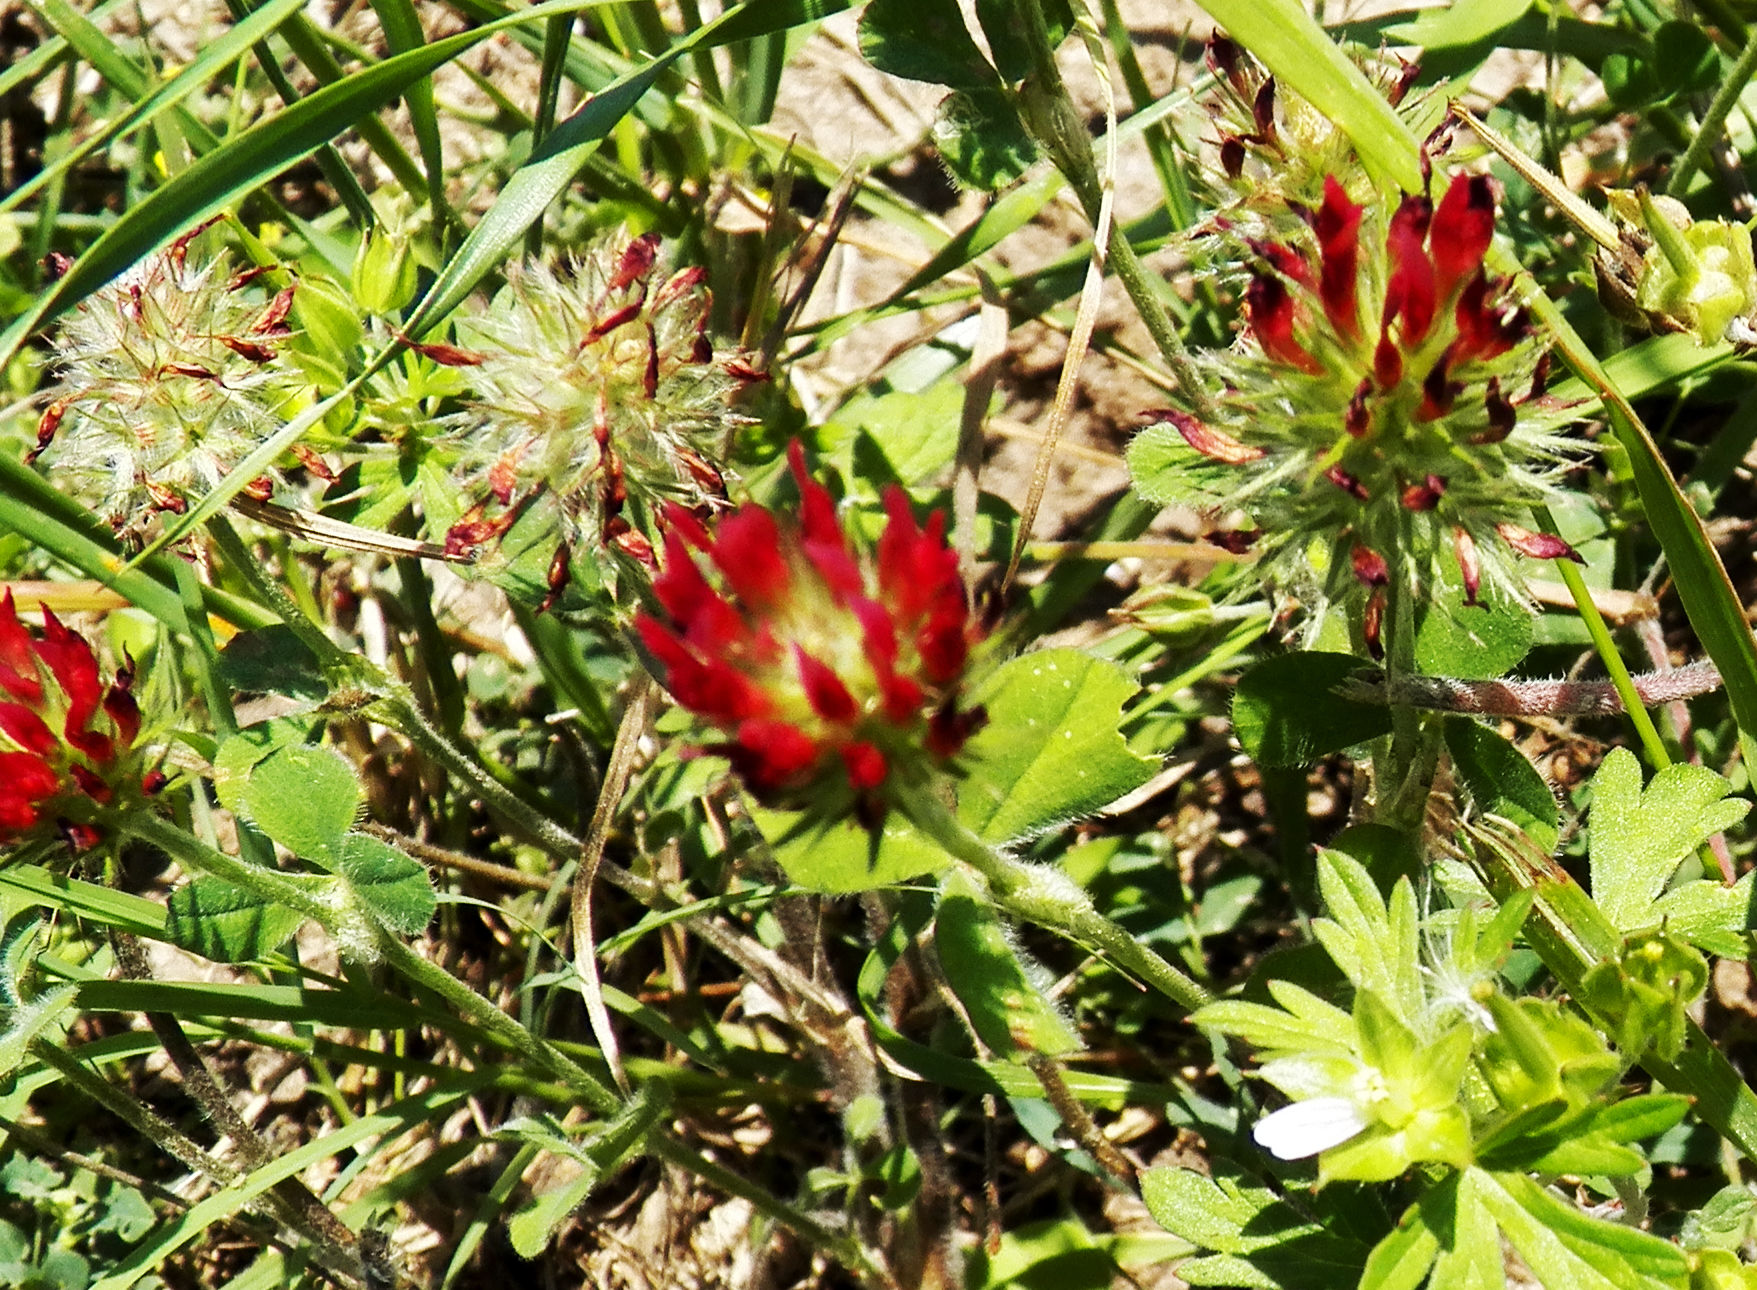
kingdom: Plantae
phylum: Tracheophyta
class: Magnoliopsida
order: Fabales
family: Fabaceae
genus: Trifolium
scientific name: Trifolium incarnatum
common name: Crimson clover
